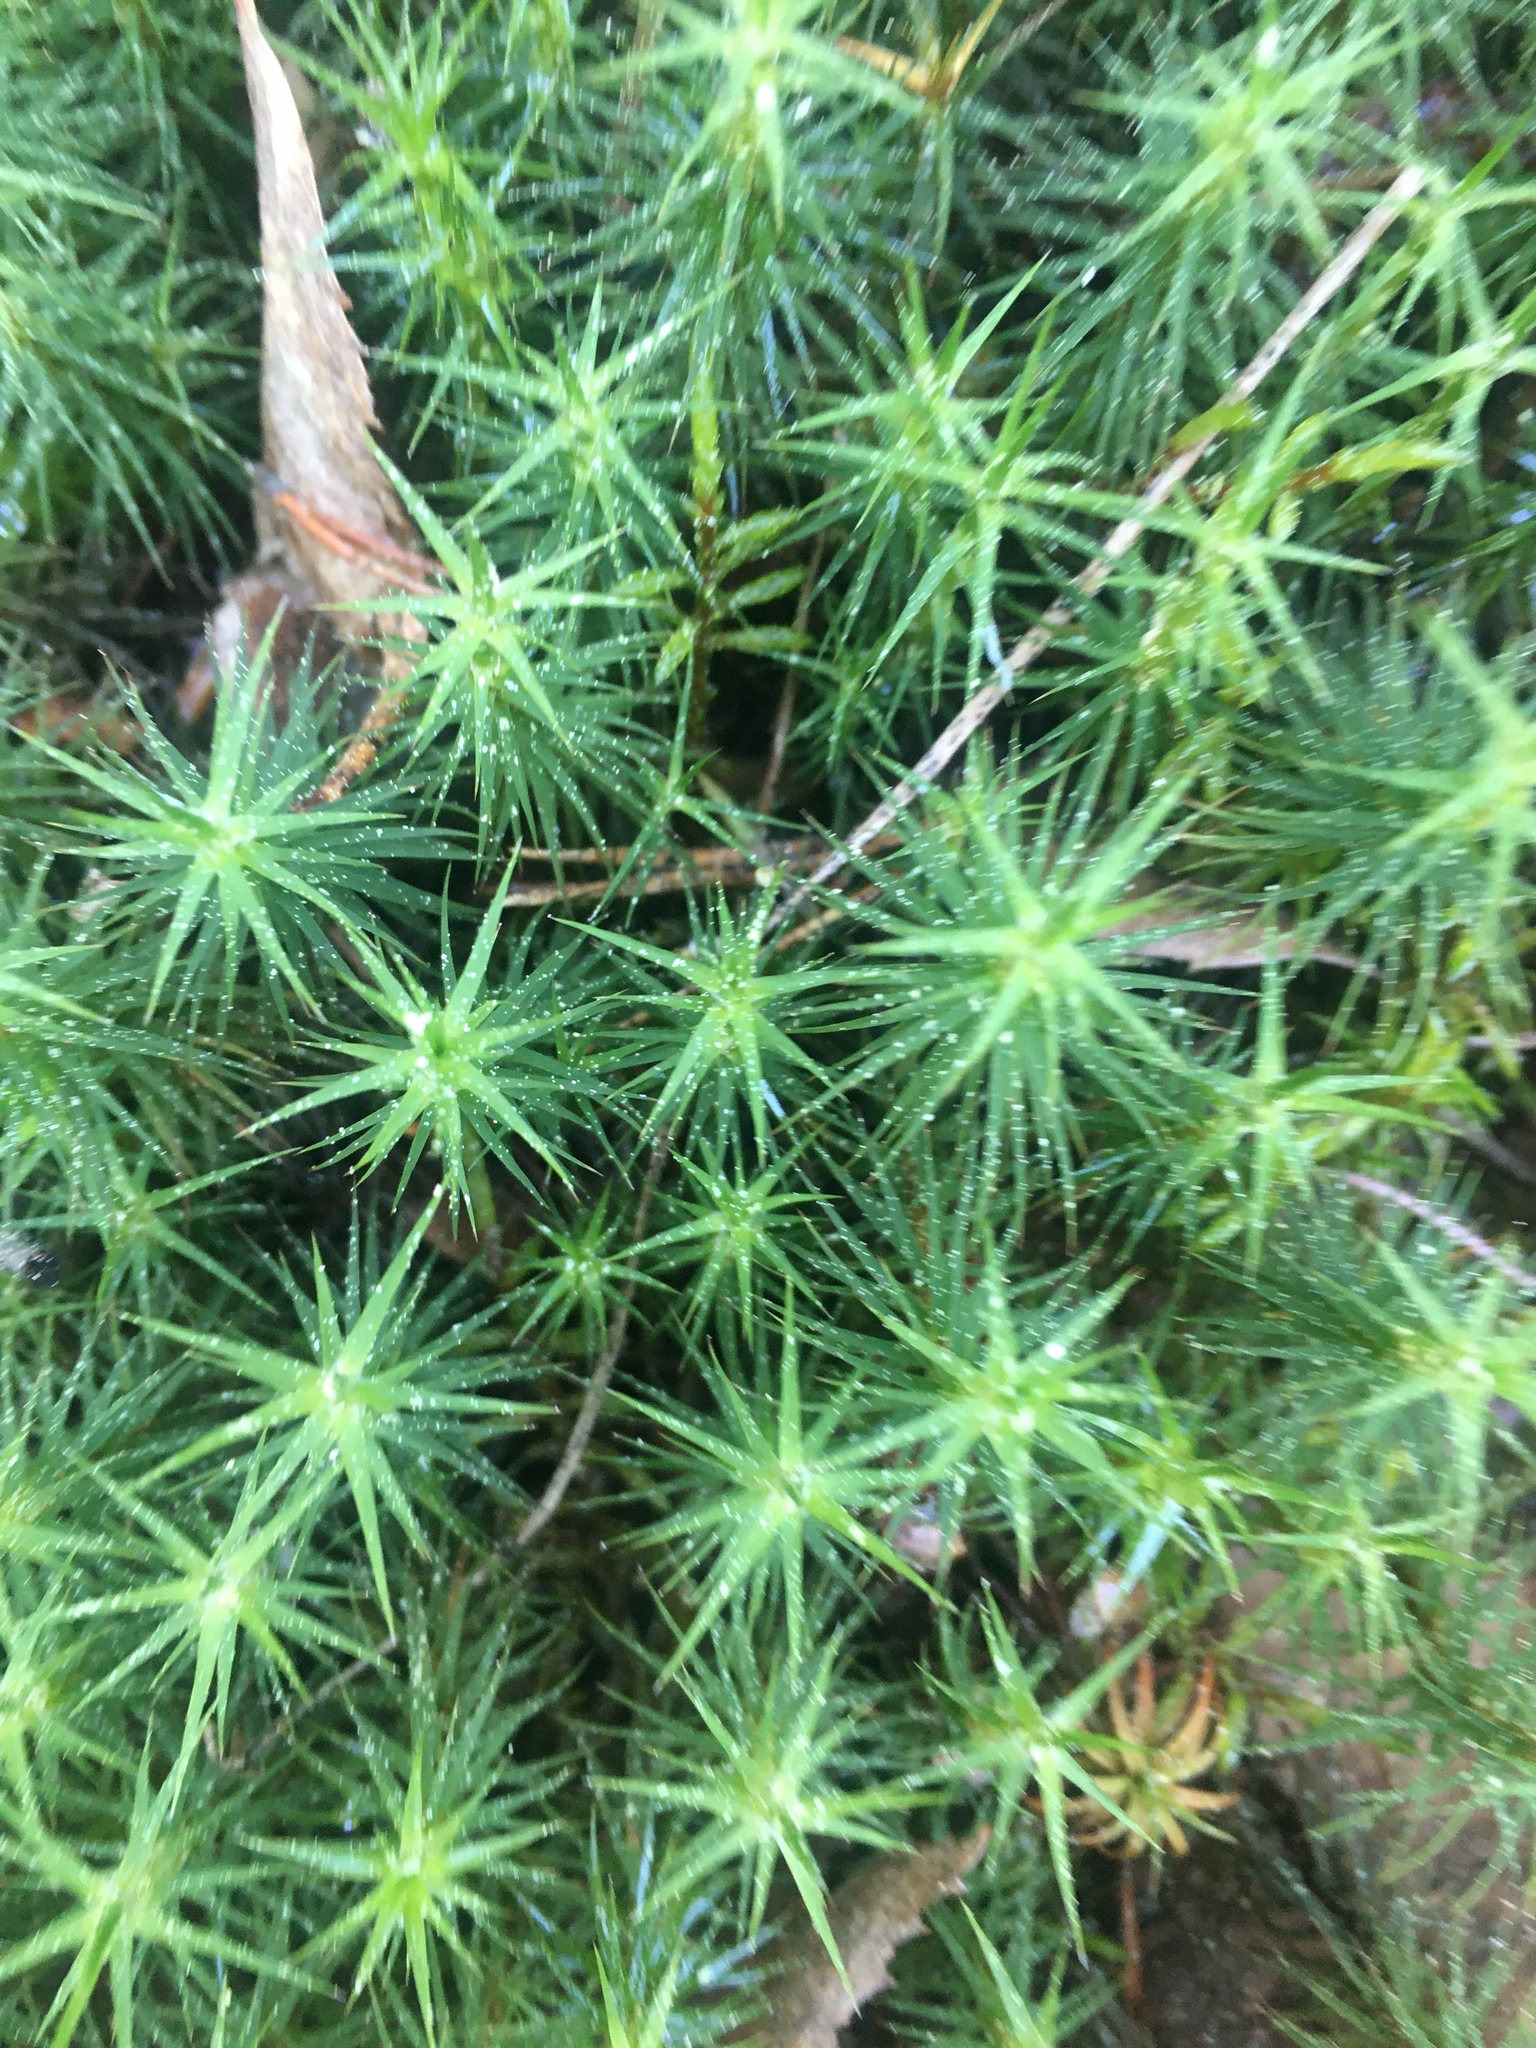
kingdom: Plantae
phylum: Bryophyta
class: Polytrichopsida
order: Polytrichales
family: Polytrichaceae
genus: Polytrichum
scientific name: Polytrichum commune
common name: Common haircap
